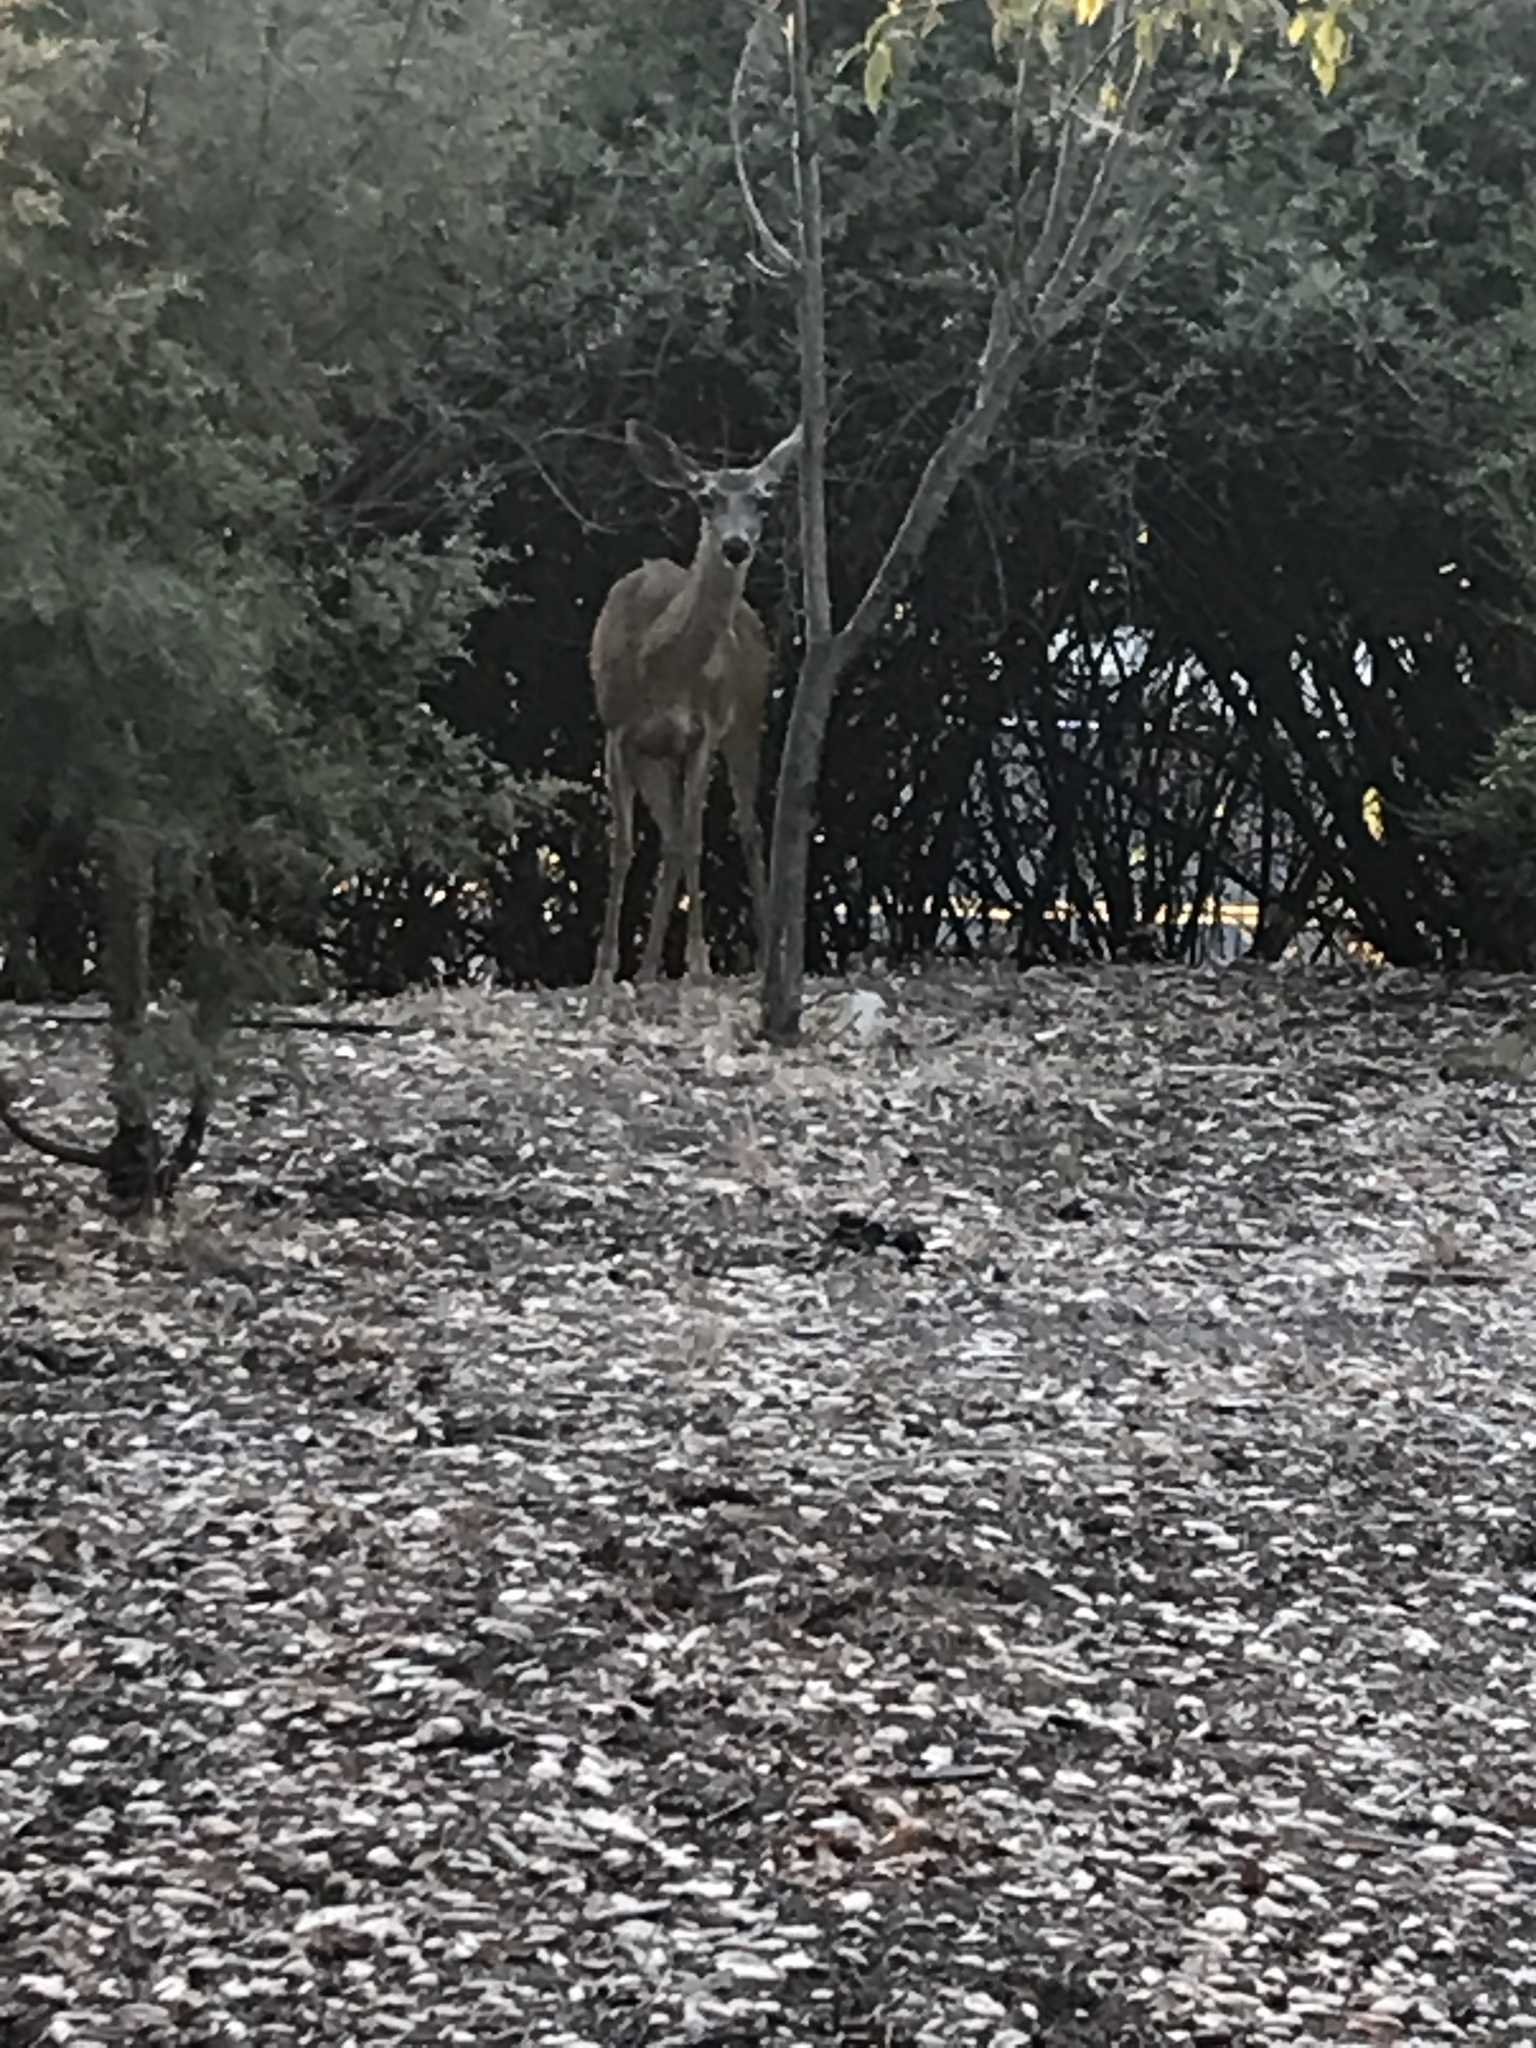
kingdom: Animalia
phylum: Chordata
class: Mammalia
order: Artiodactyla
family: Cervidae
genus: Odocoileus
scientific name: Odocoileus hemionus
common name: Mule deer
